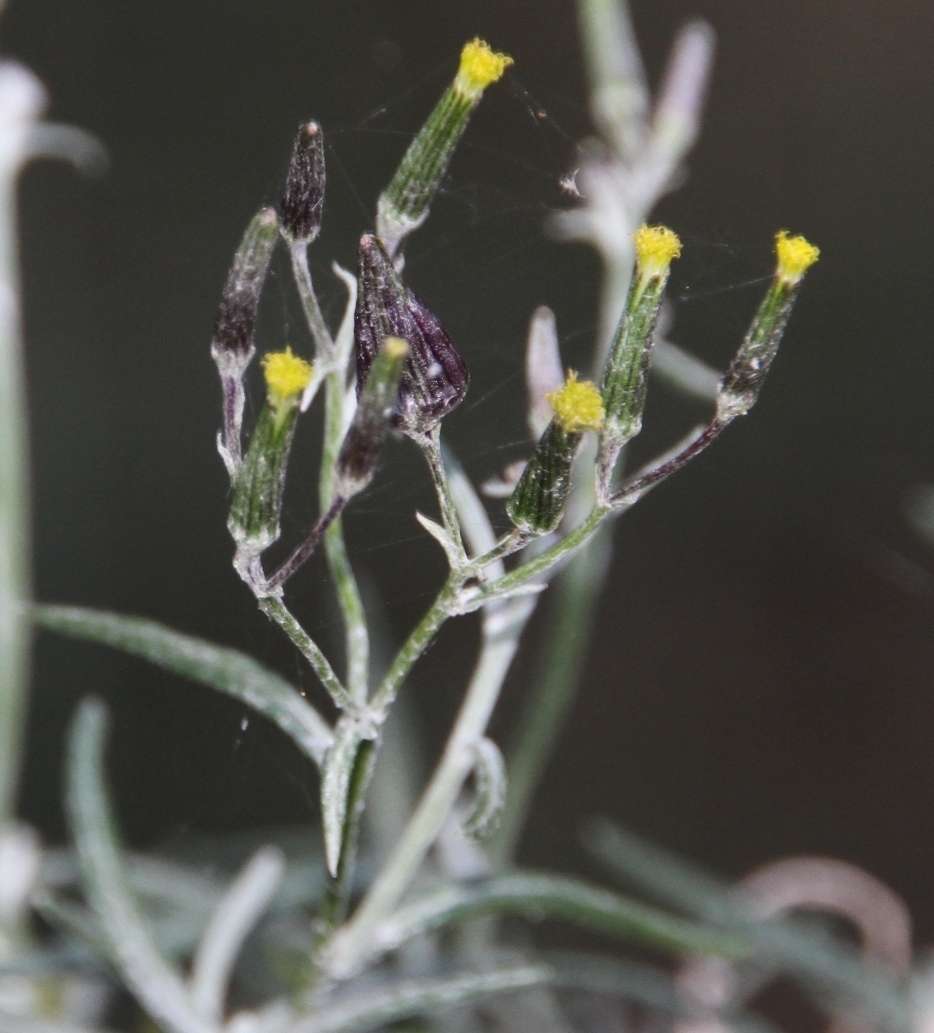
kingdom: Plantae
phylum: Tracheophyta
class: Magnoliopsida
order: Asterales
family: Asteraceae
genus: Senecio
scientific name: Senecio quadridentatus
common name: Cotton fireweed
